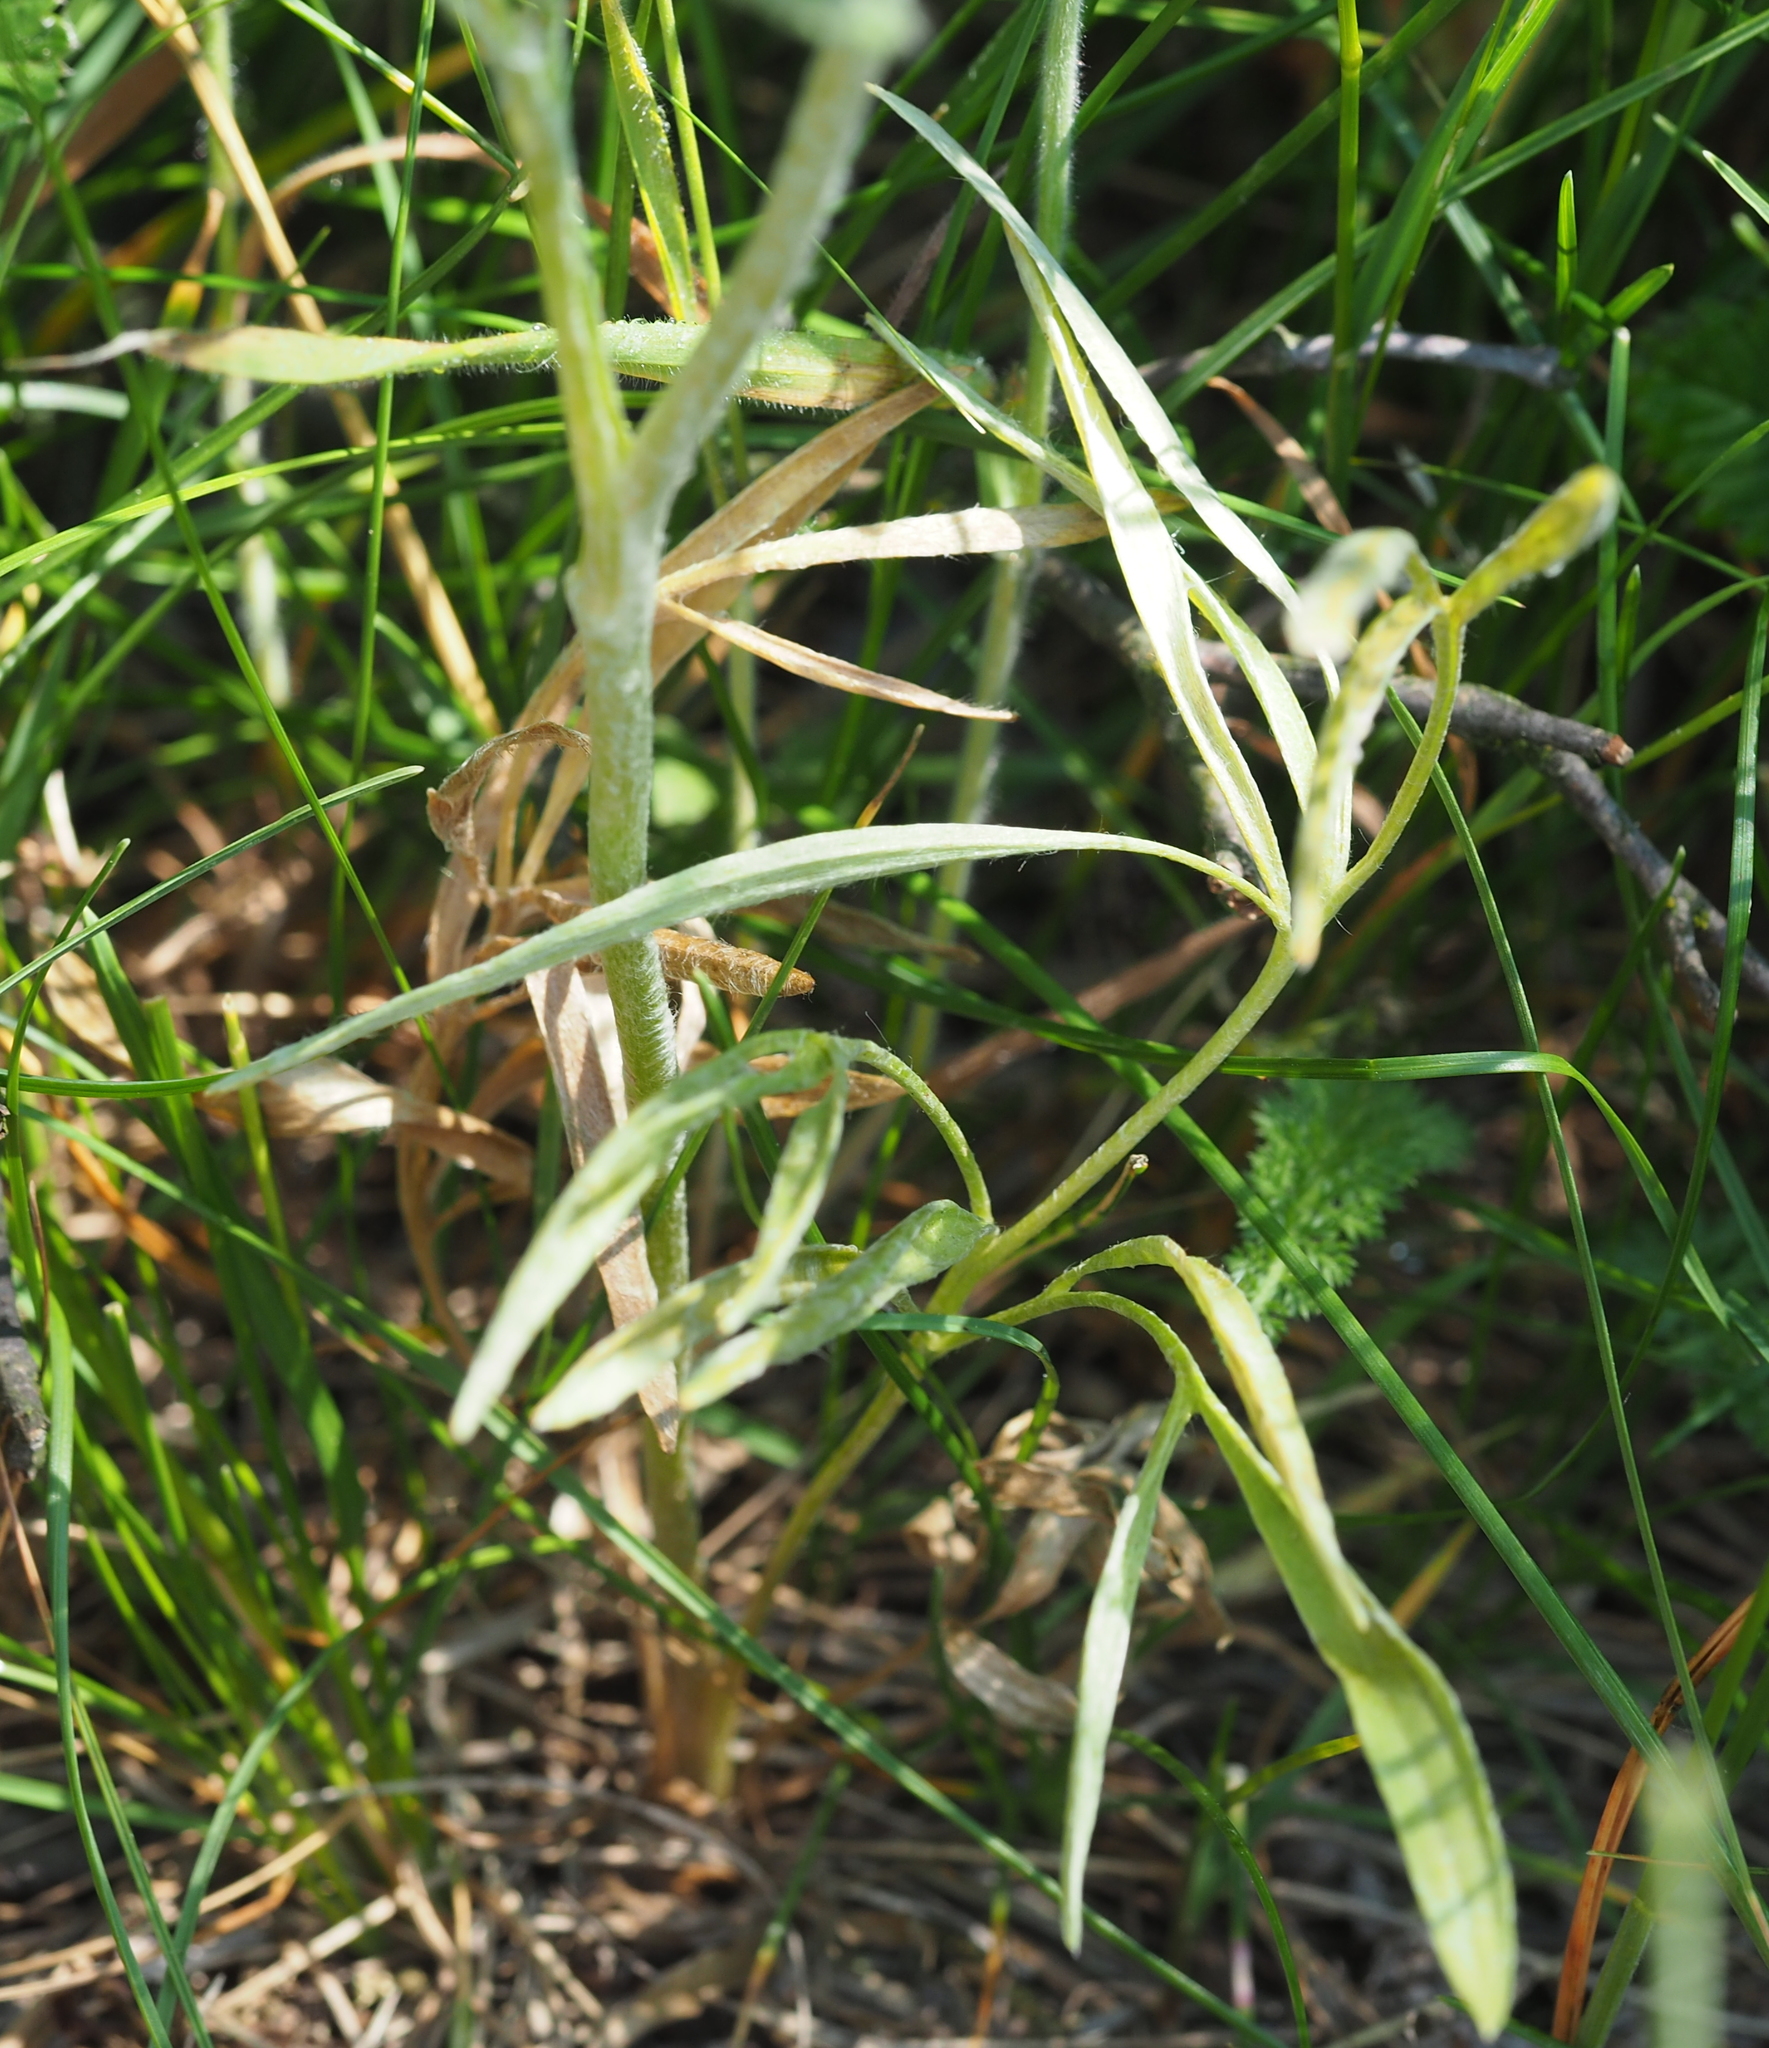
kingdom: Plantae
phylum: Tracheophyta
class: Magnoliopsida
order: Ranunculales
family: Ranunculaceae
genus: Ranunculus
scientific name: Ranunculus illyricus
